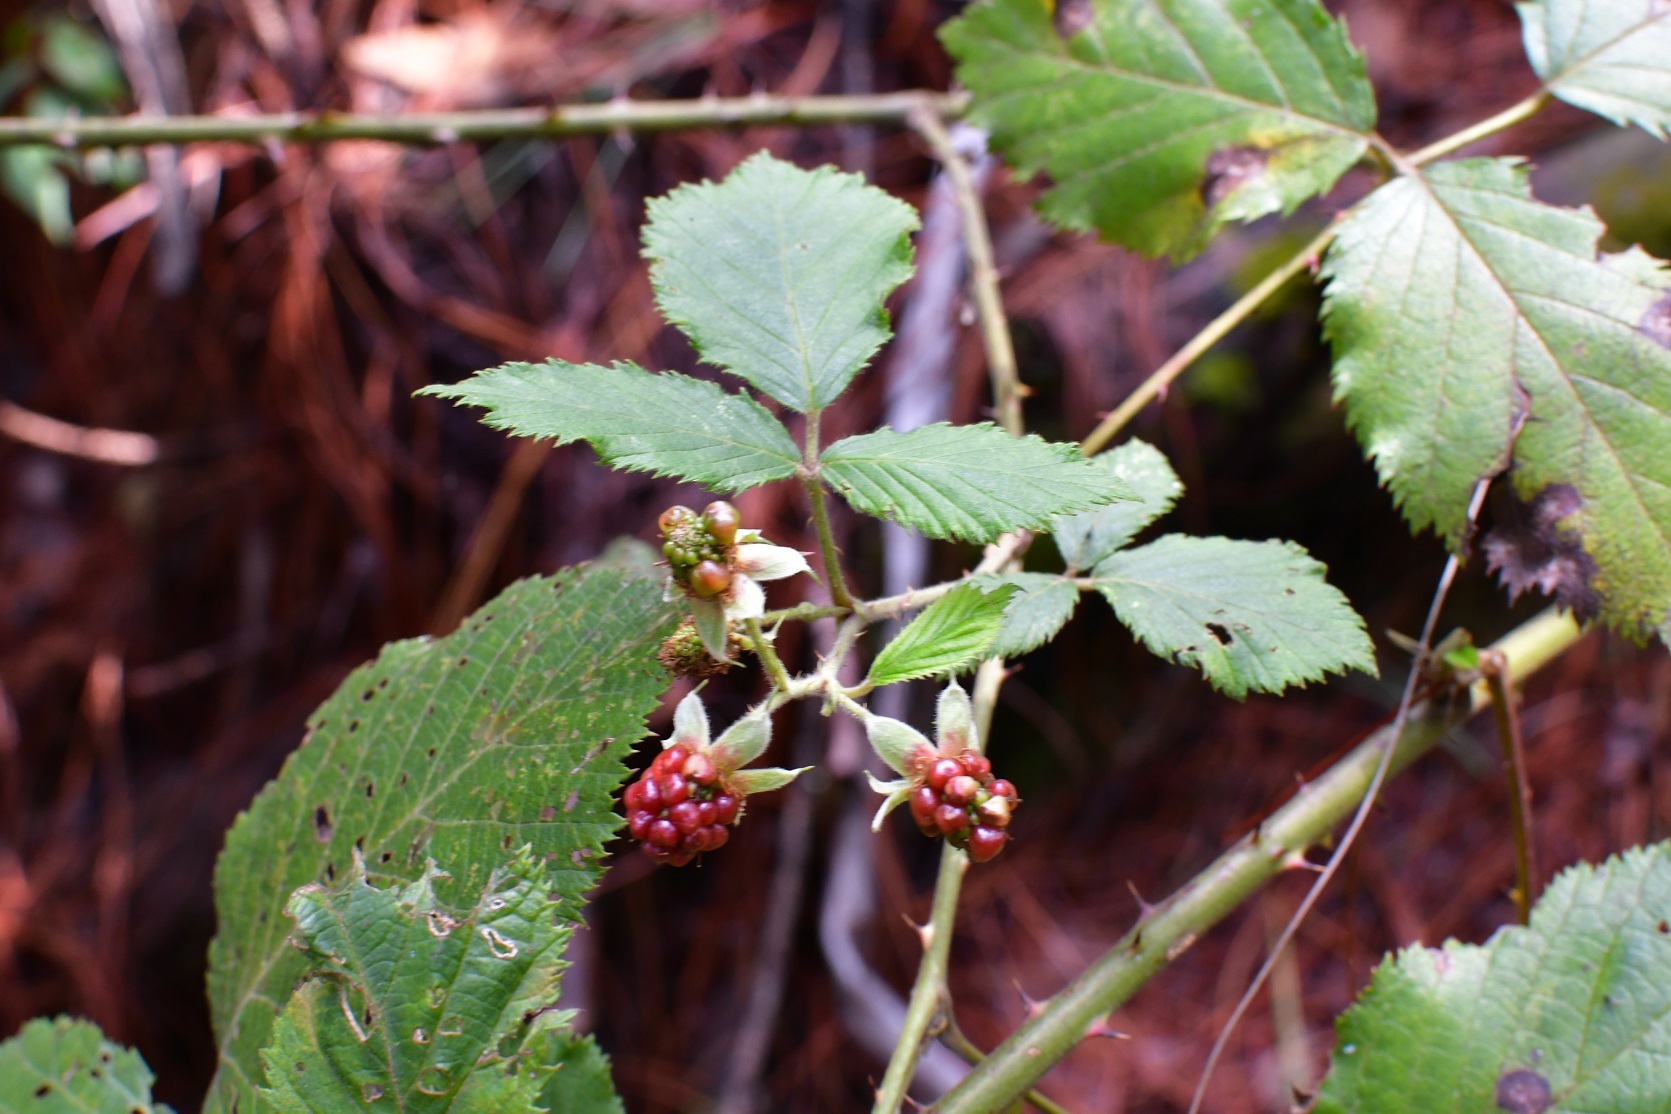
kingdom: Plantae
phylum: Tracheophyta
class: Magnoliopsida
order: Rosales
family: Rosaceae
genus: Rubus
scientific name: Rubus adenotrichos
